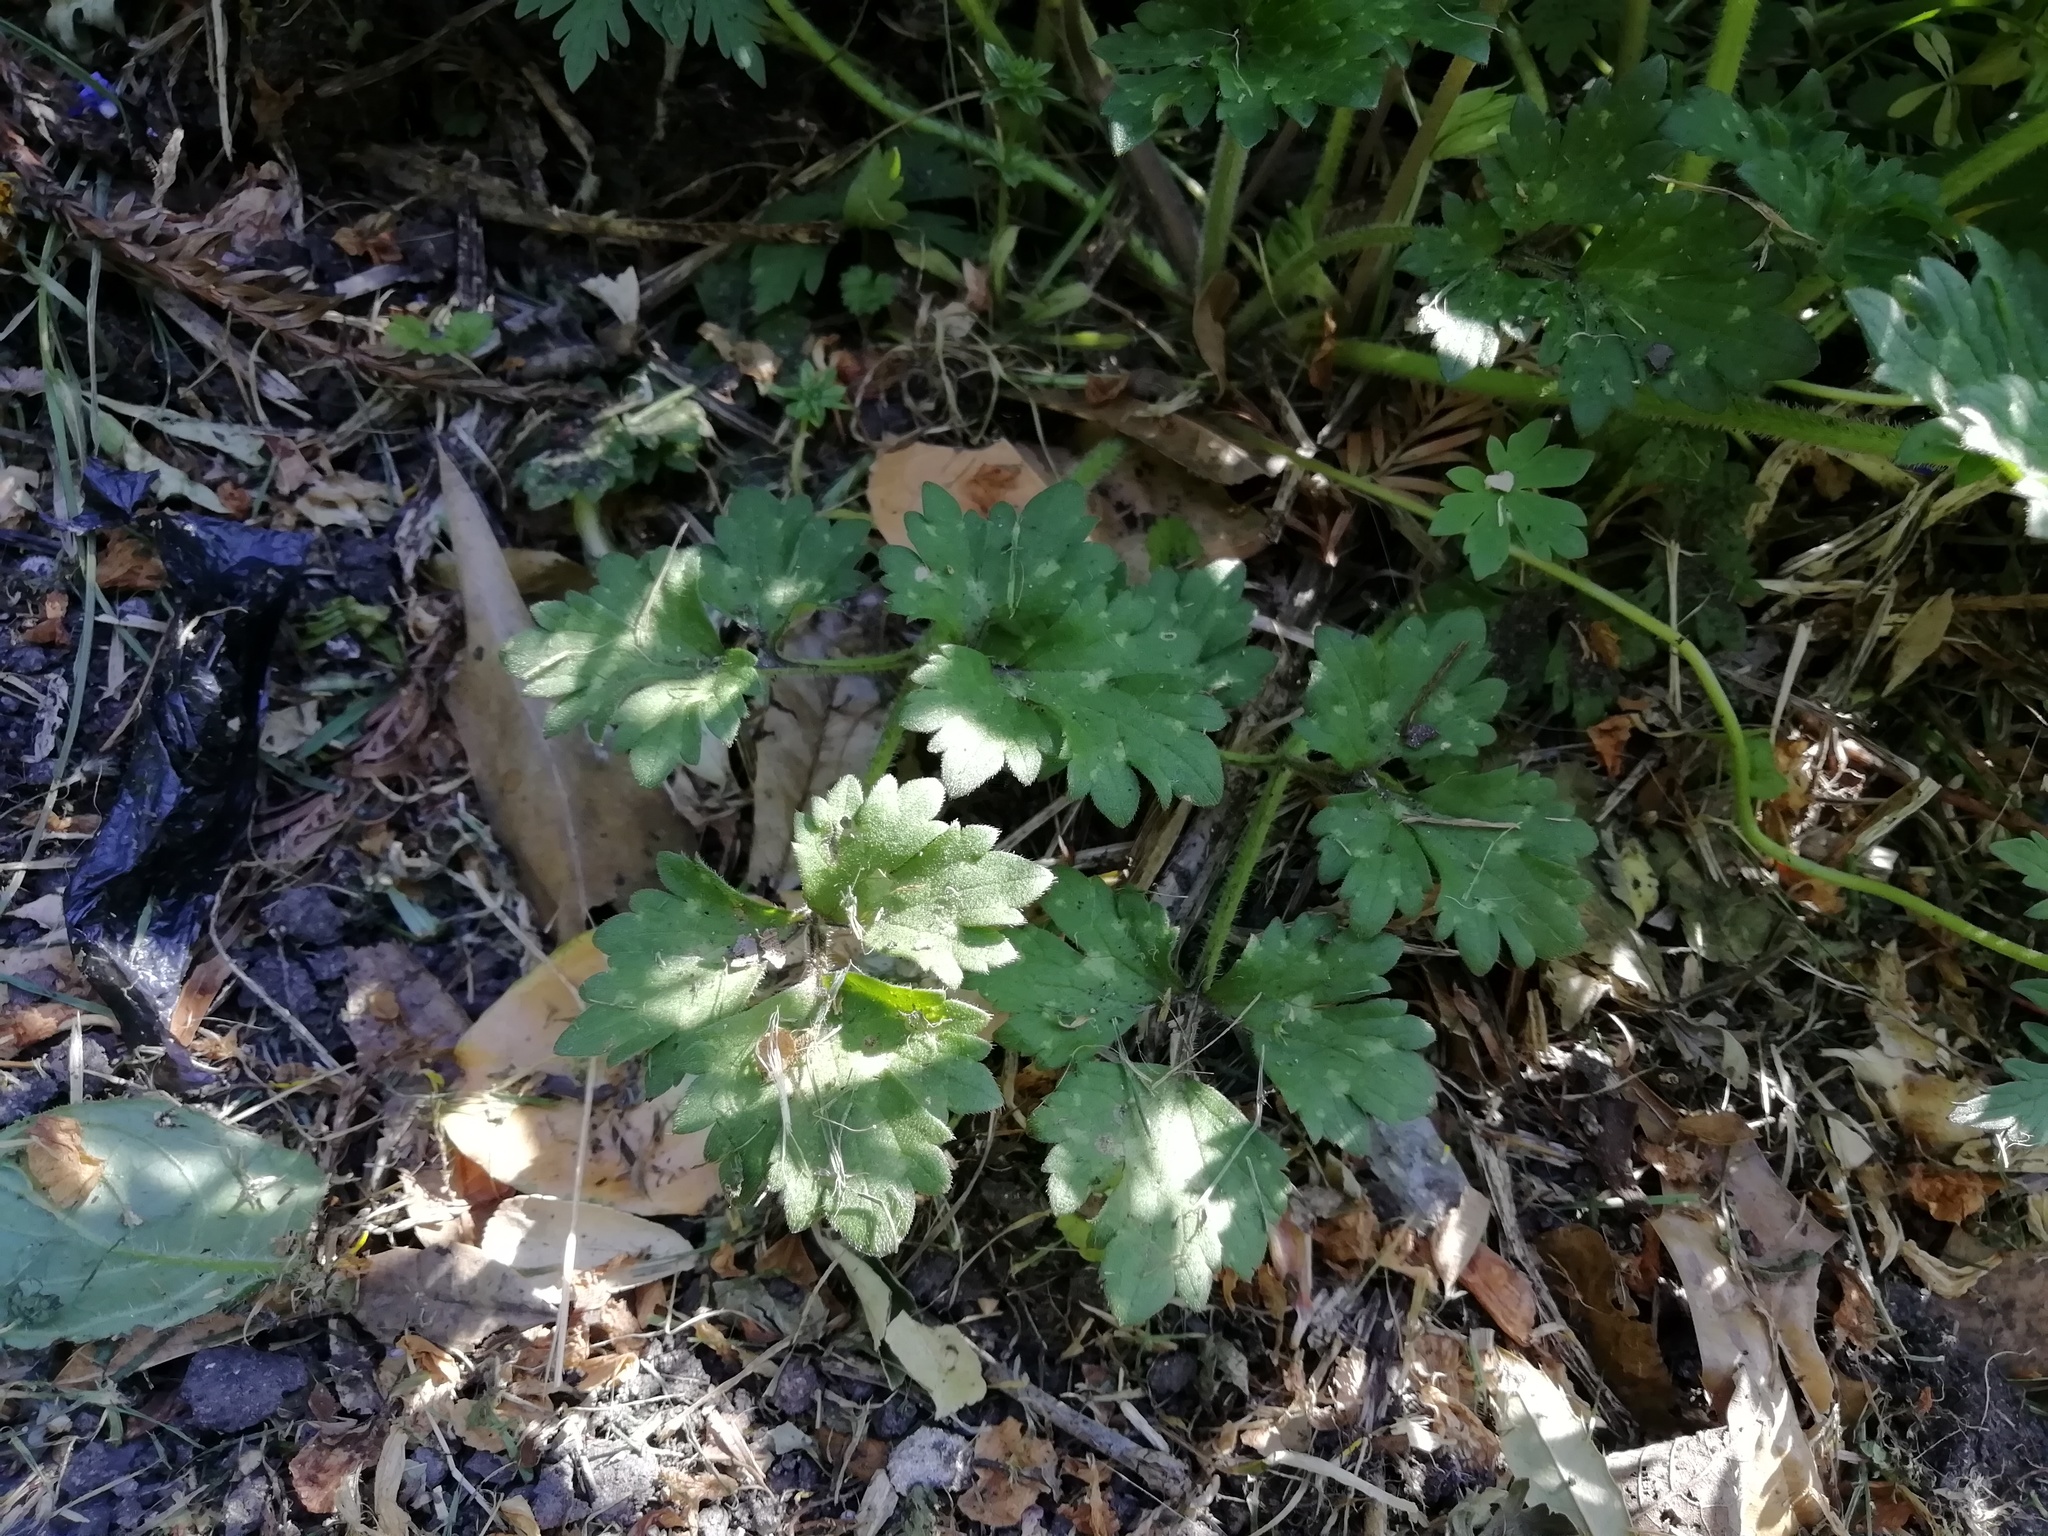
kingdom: Plantae
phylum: Tracheophyta
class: Magnoliopsida
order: Ranunculales
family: Ranunculaceae
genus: Ranunculus
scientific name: Ranunculus repens
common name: Creeping buttercup
